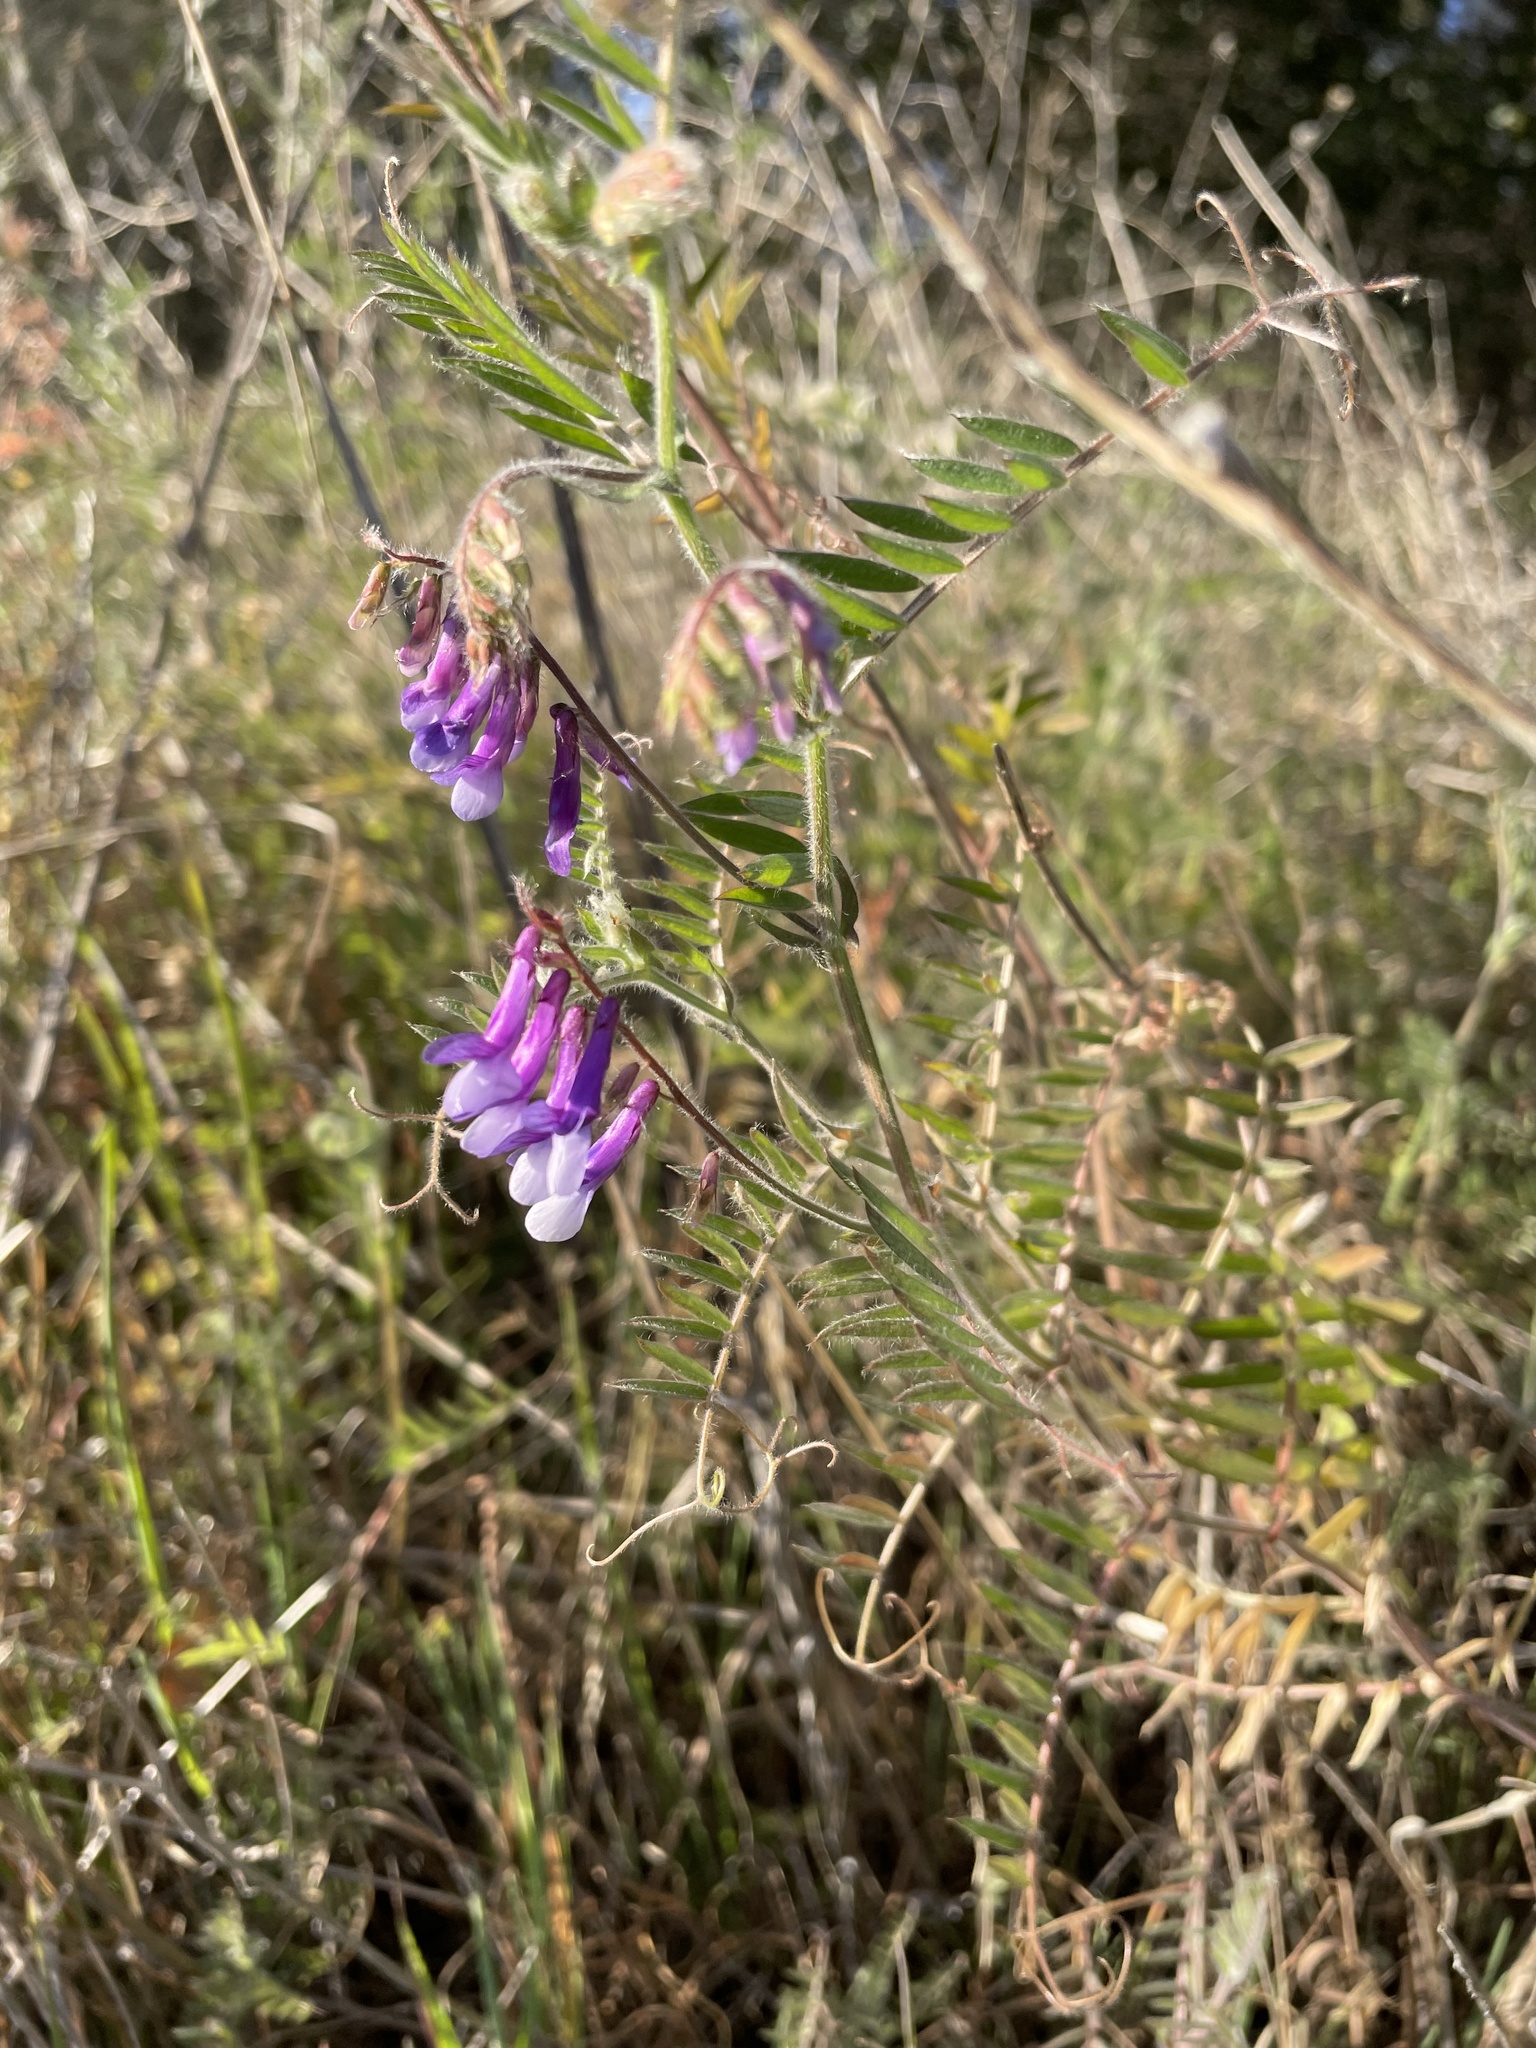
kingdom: Plantae
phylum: Tracheophyta
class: Magnoliopsida
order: Fabales
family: Fabaceae
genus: Vicia
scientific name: Vicia villosa
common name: Fodder vetch
